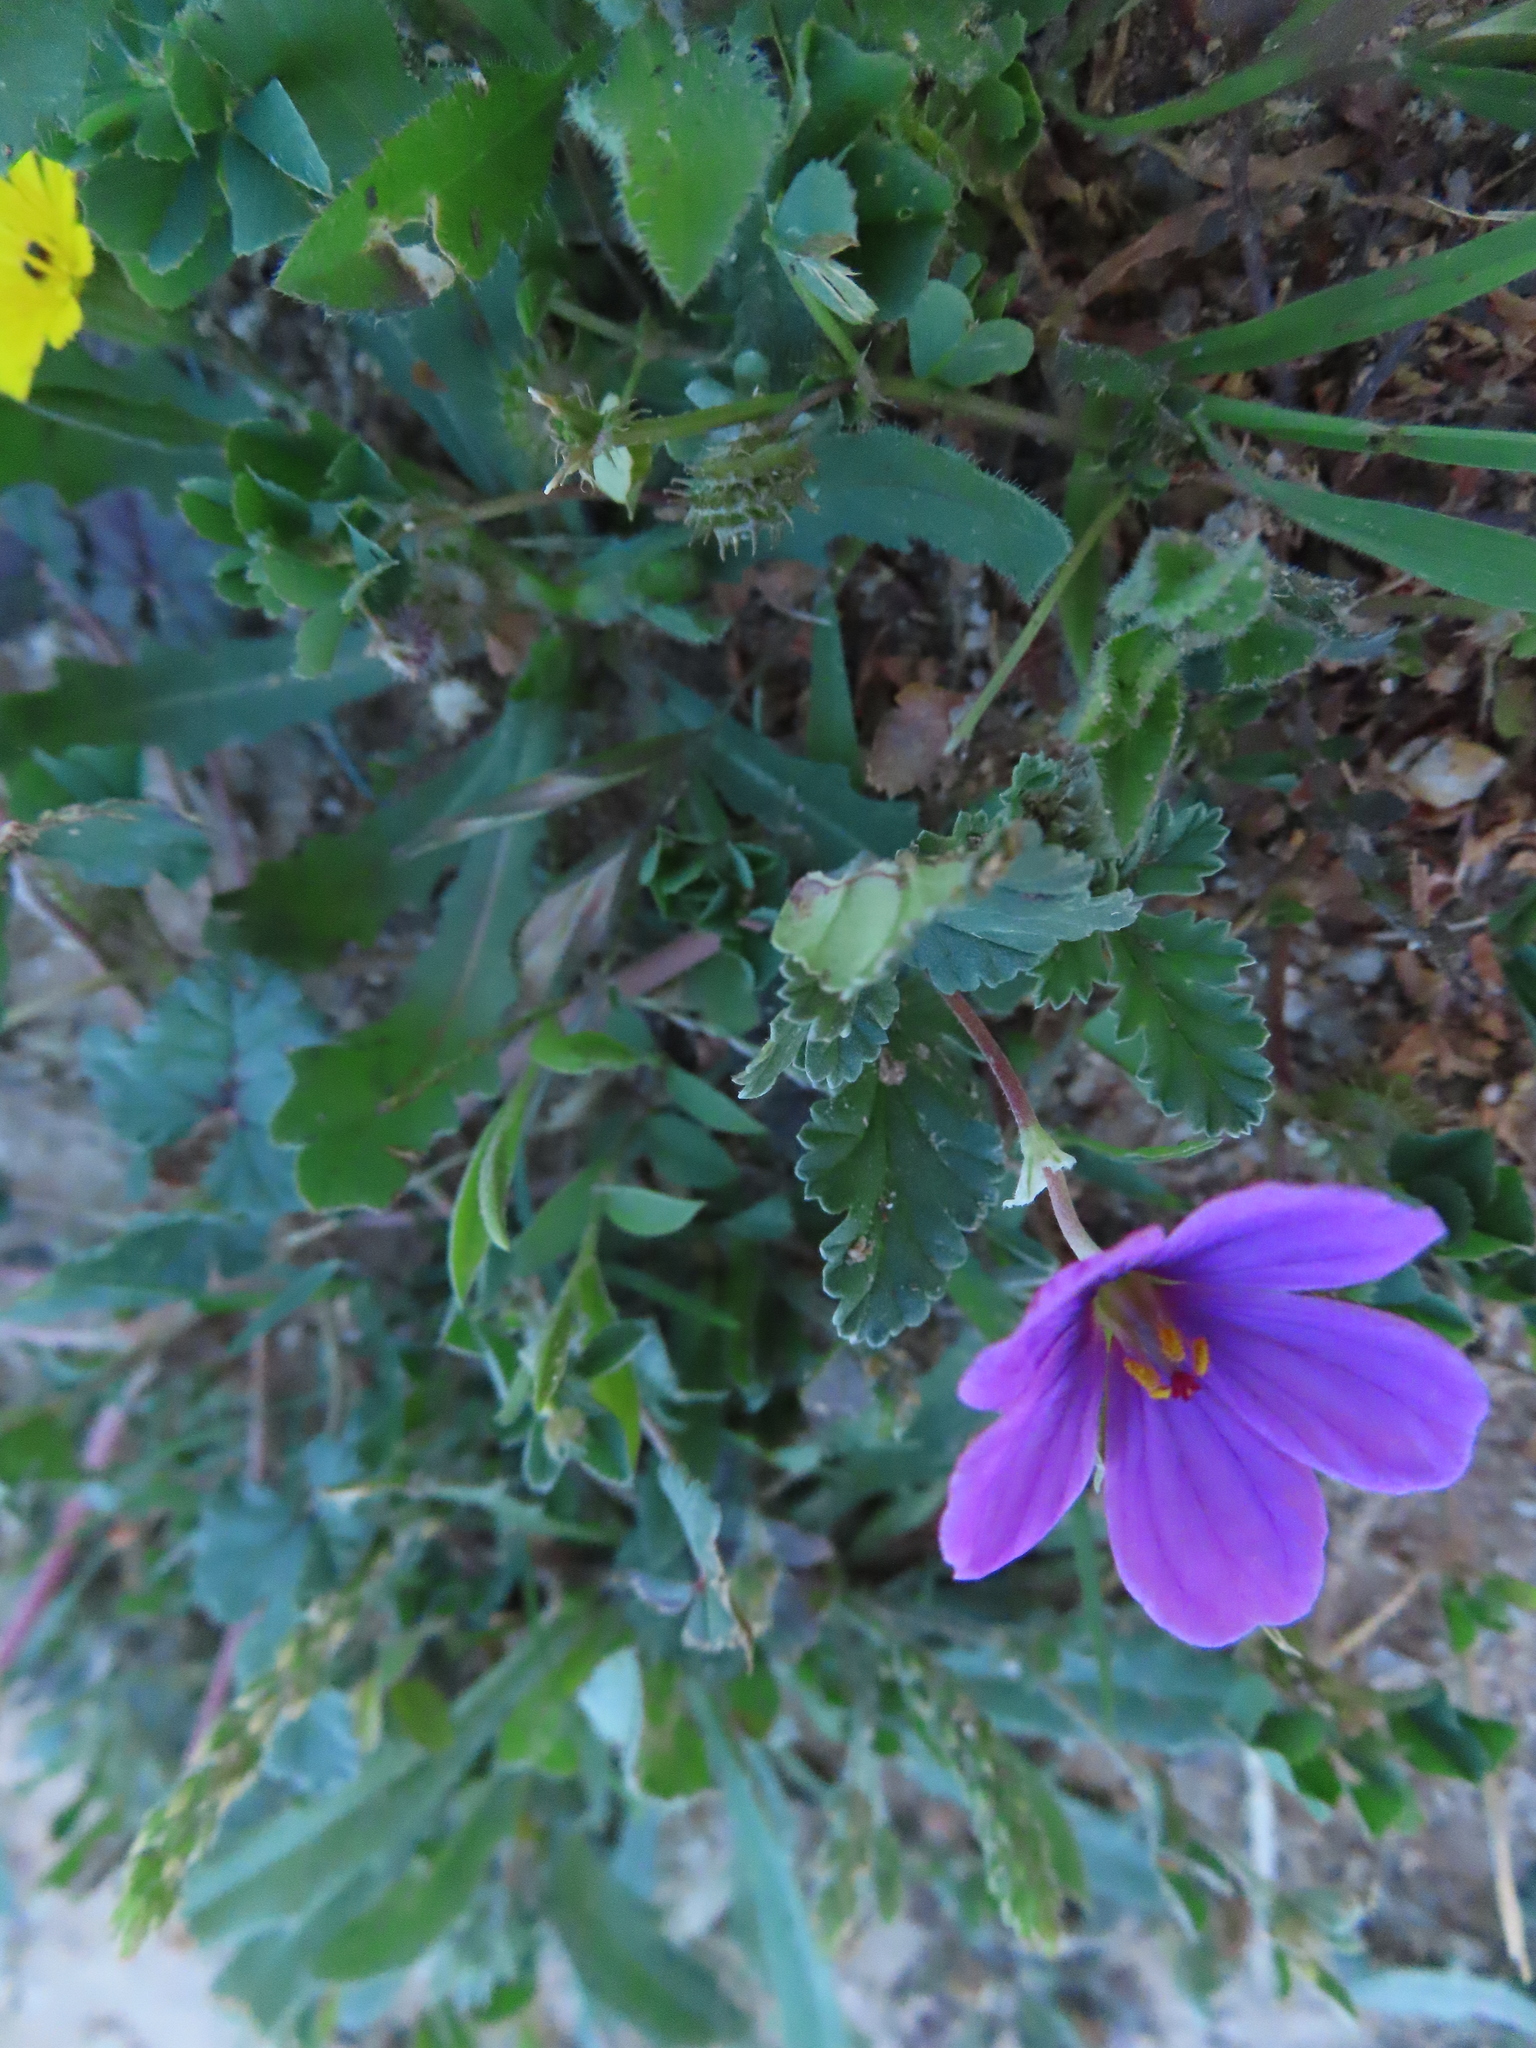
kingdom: Plantae
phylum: Tracheophyta
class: Magnoliopsida
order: Geraniales
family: Geraniaceae
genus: Erodium
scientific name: Erodium texanum
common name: Texas stork's-bill
